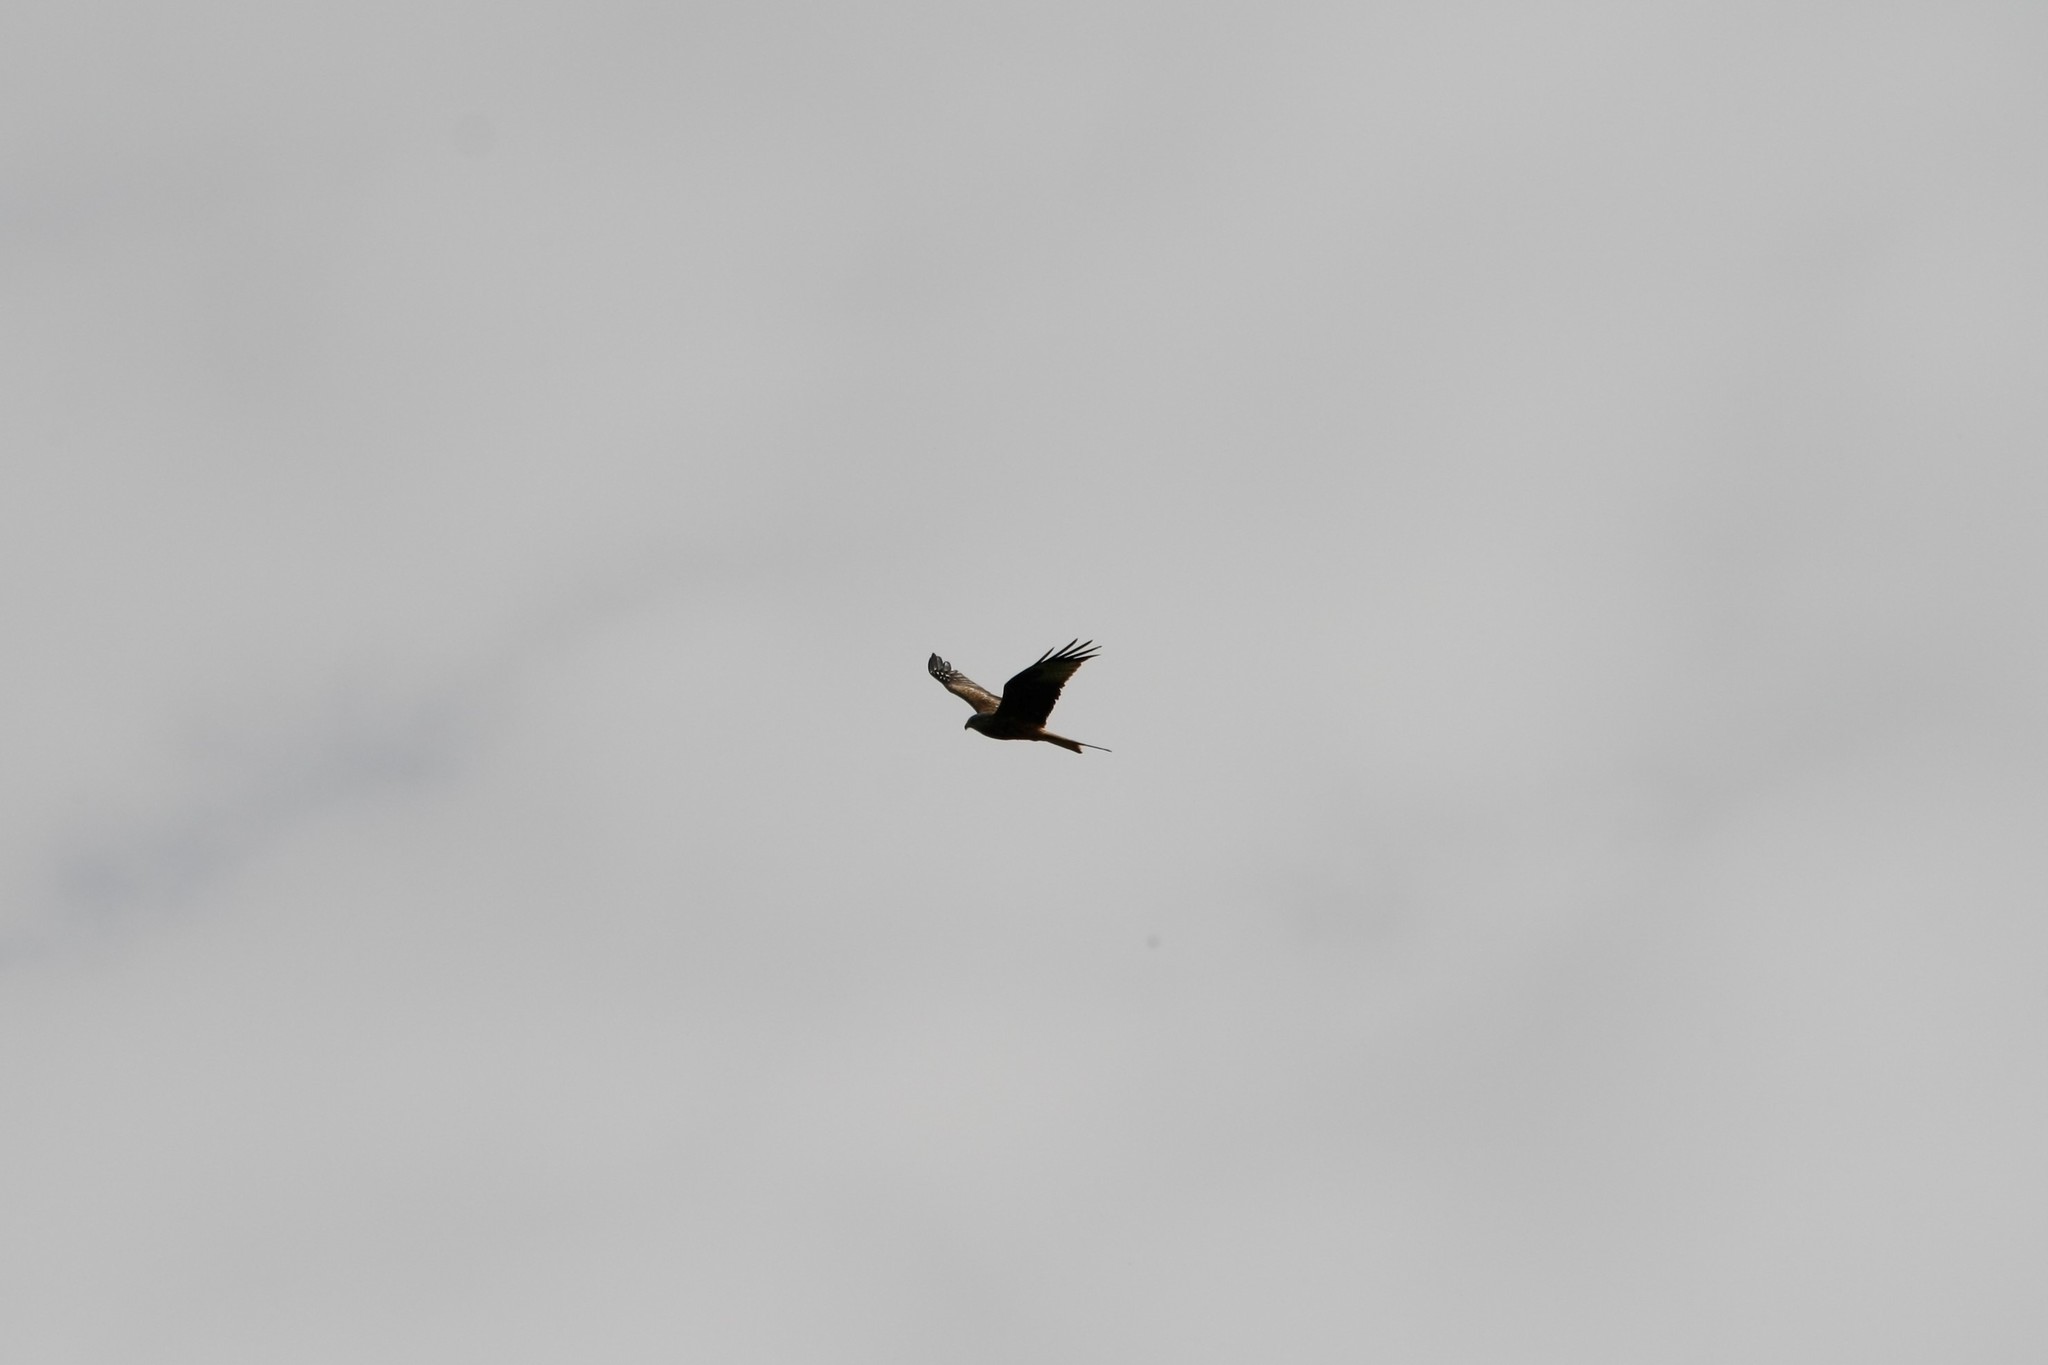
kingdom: Animalia
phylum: Chordata
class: Aves
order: Accipitriformes
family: Accipitridae
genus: Milvus
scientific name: Milvus milvus
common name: Red kite
